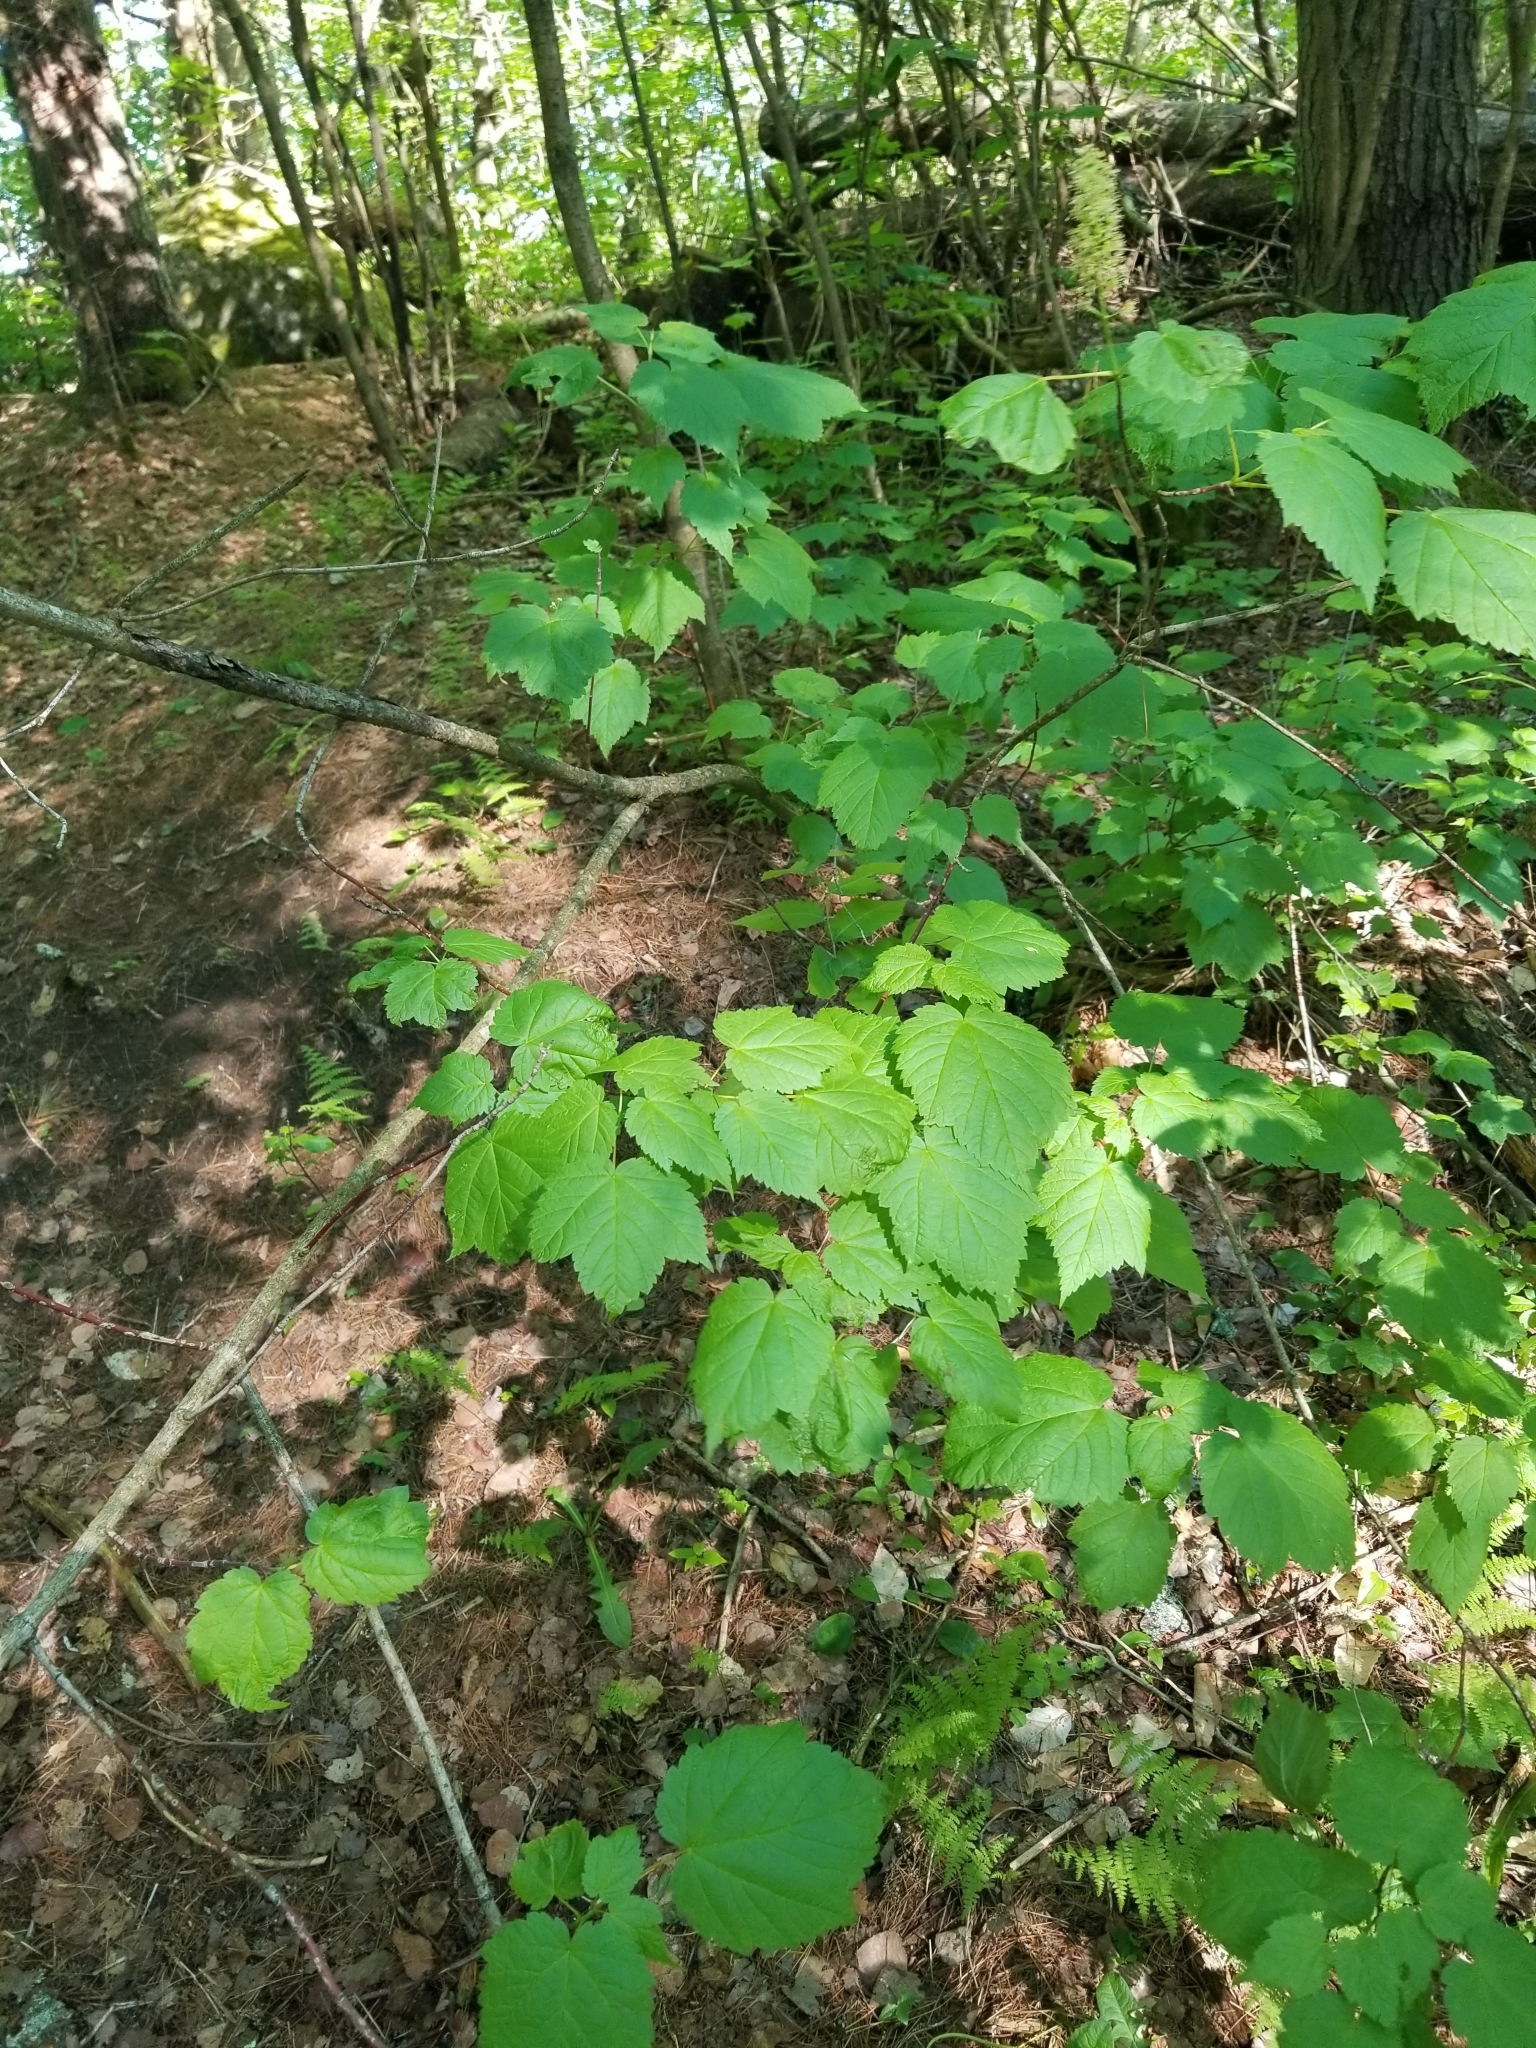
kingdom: Plantae
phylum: Tracheophyta
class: Magnoliopsida
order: Sapindales
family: Sapindaceae
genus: Acer
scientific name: Acer spicatum
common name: Mountain maple
